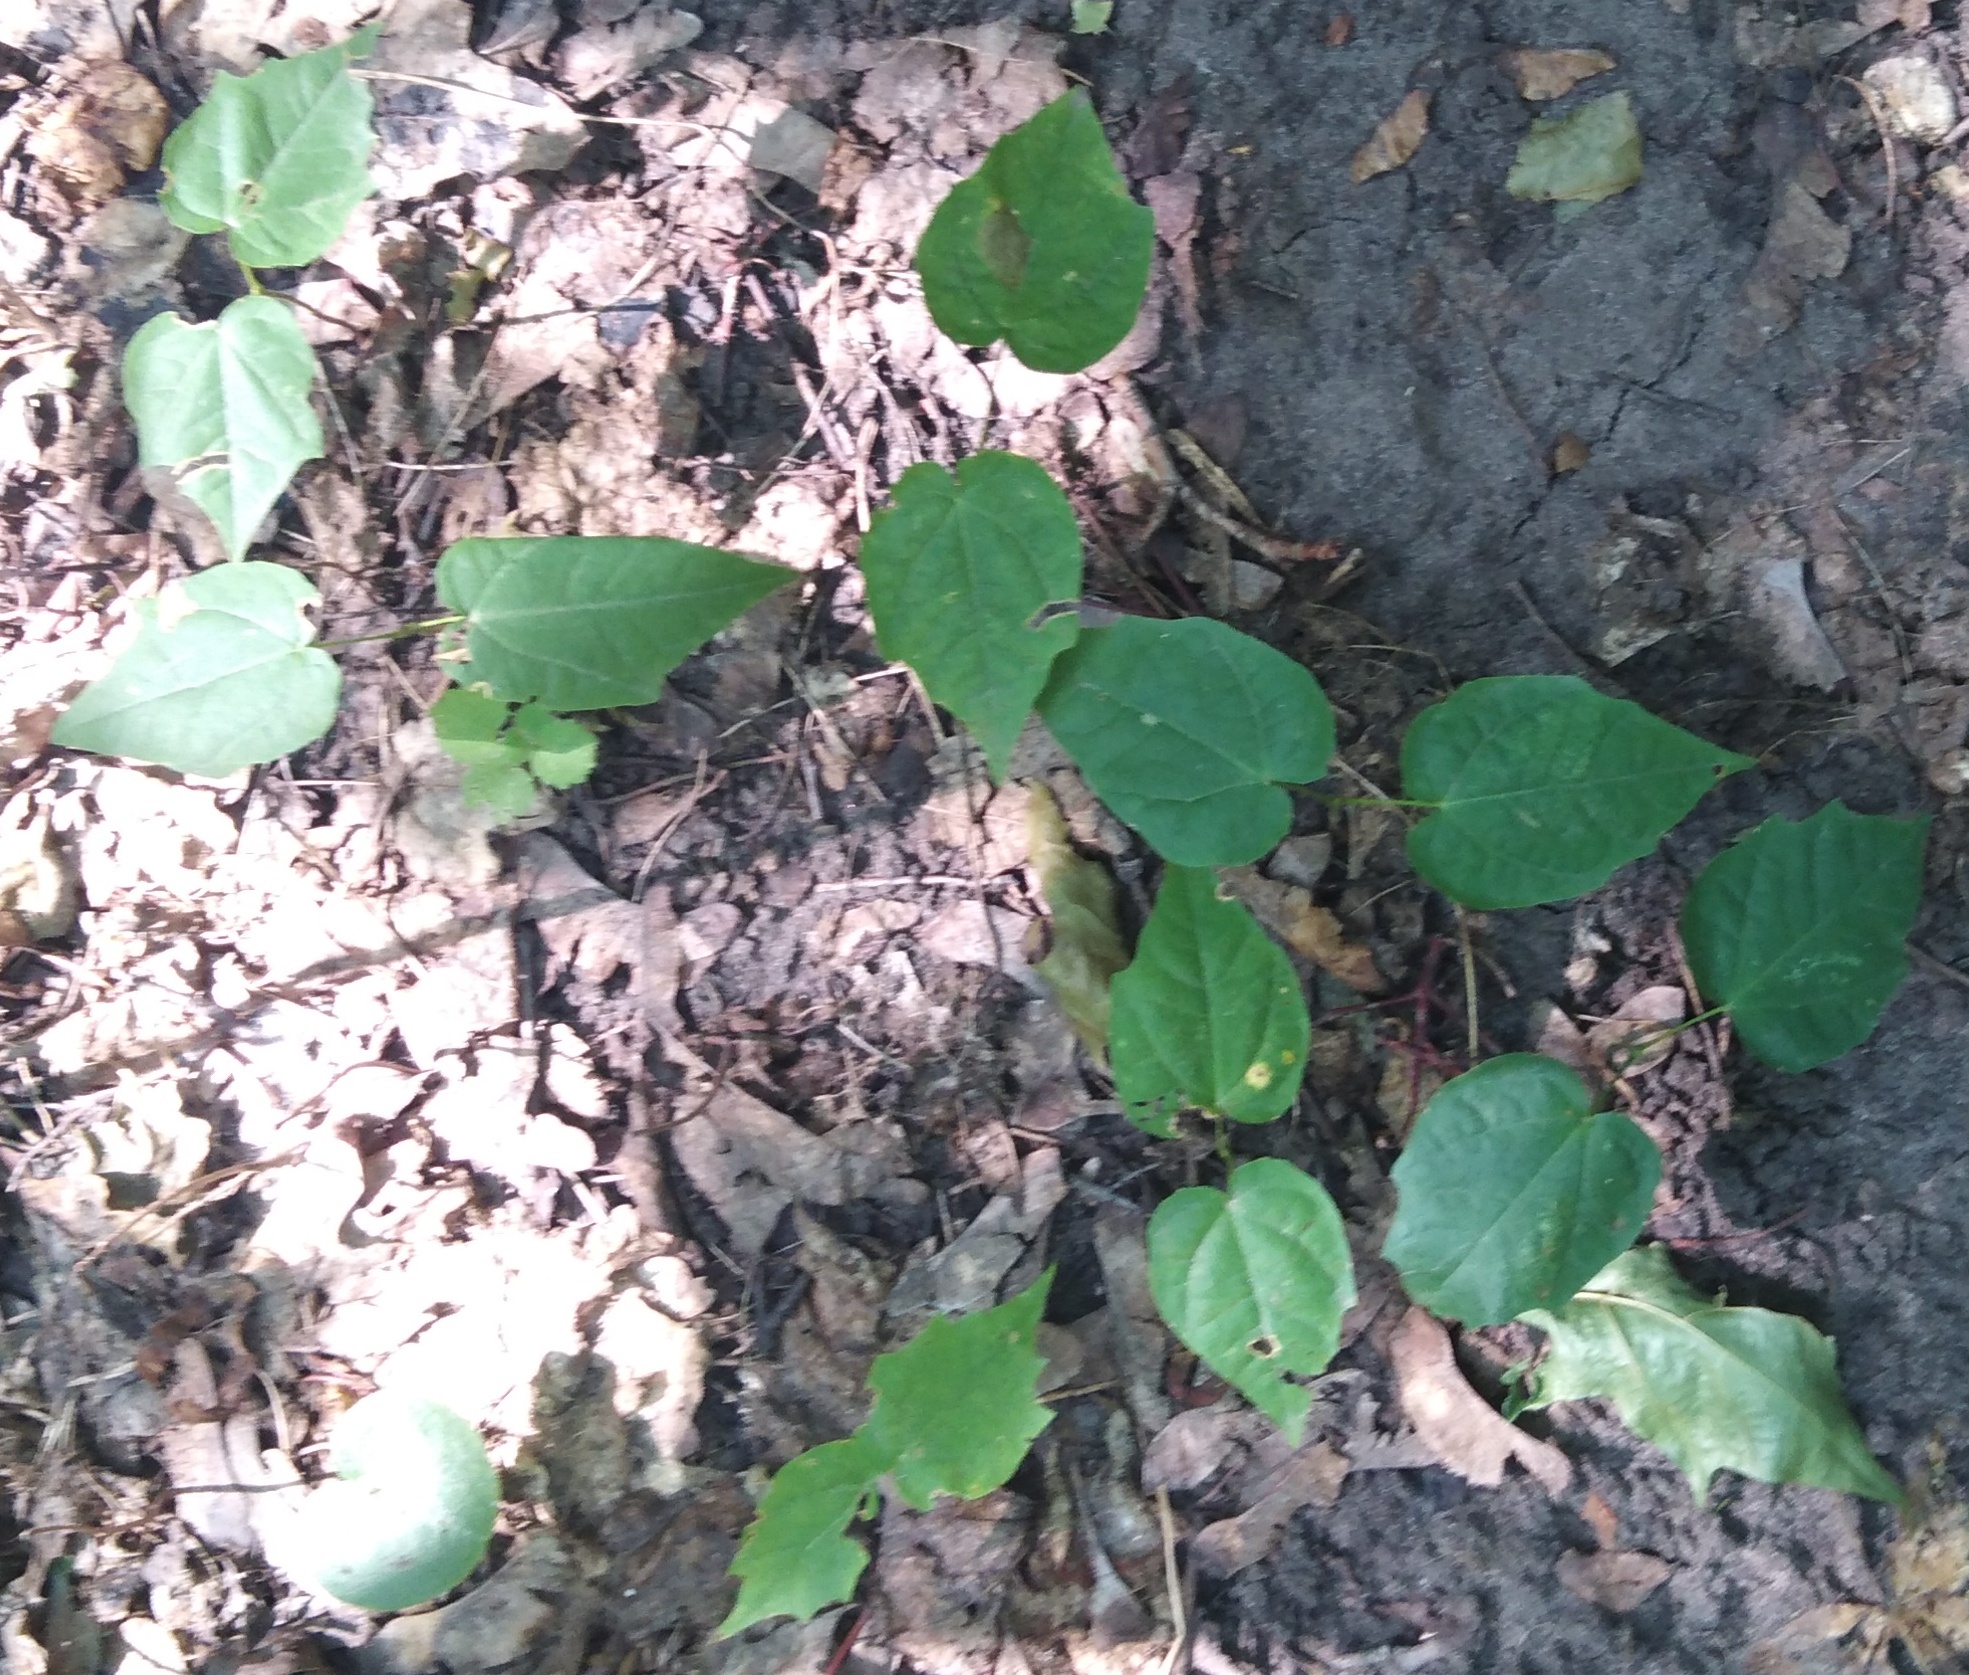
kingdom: Plantae
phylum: Tracheophyta
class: Magnoliopsida
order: Malvales
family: Malvaceae
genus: Tilia
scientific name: Tilia cordata
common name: Small-leaved lime
